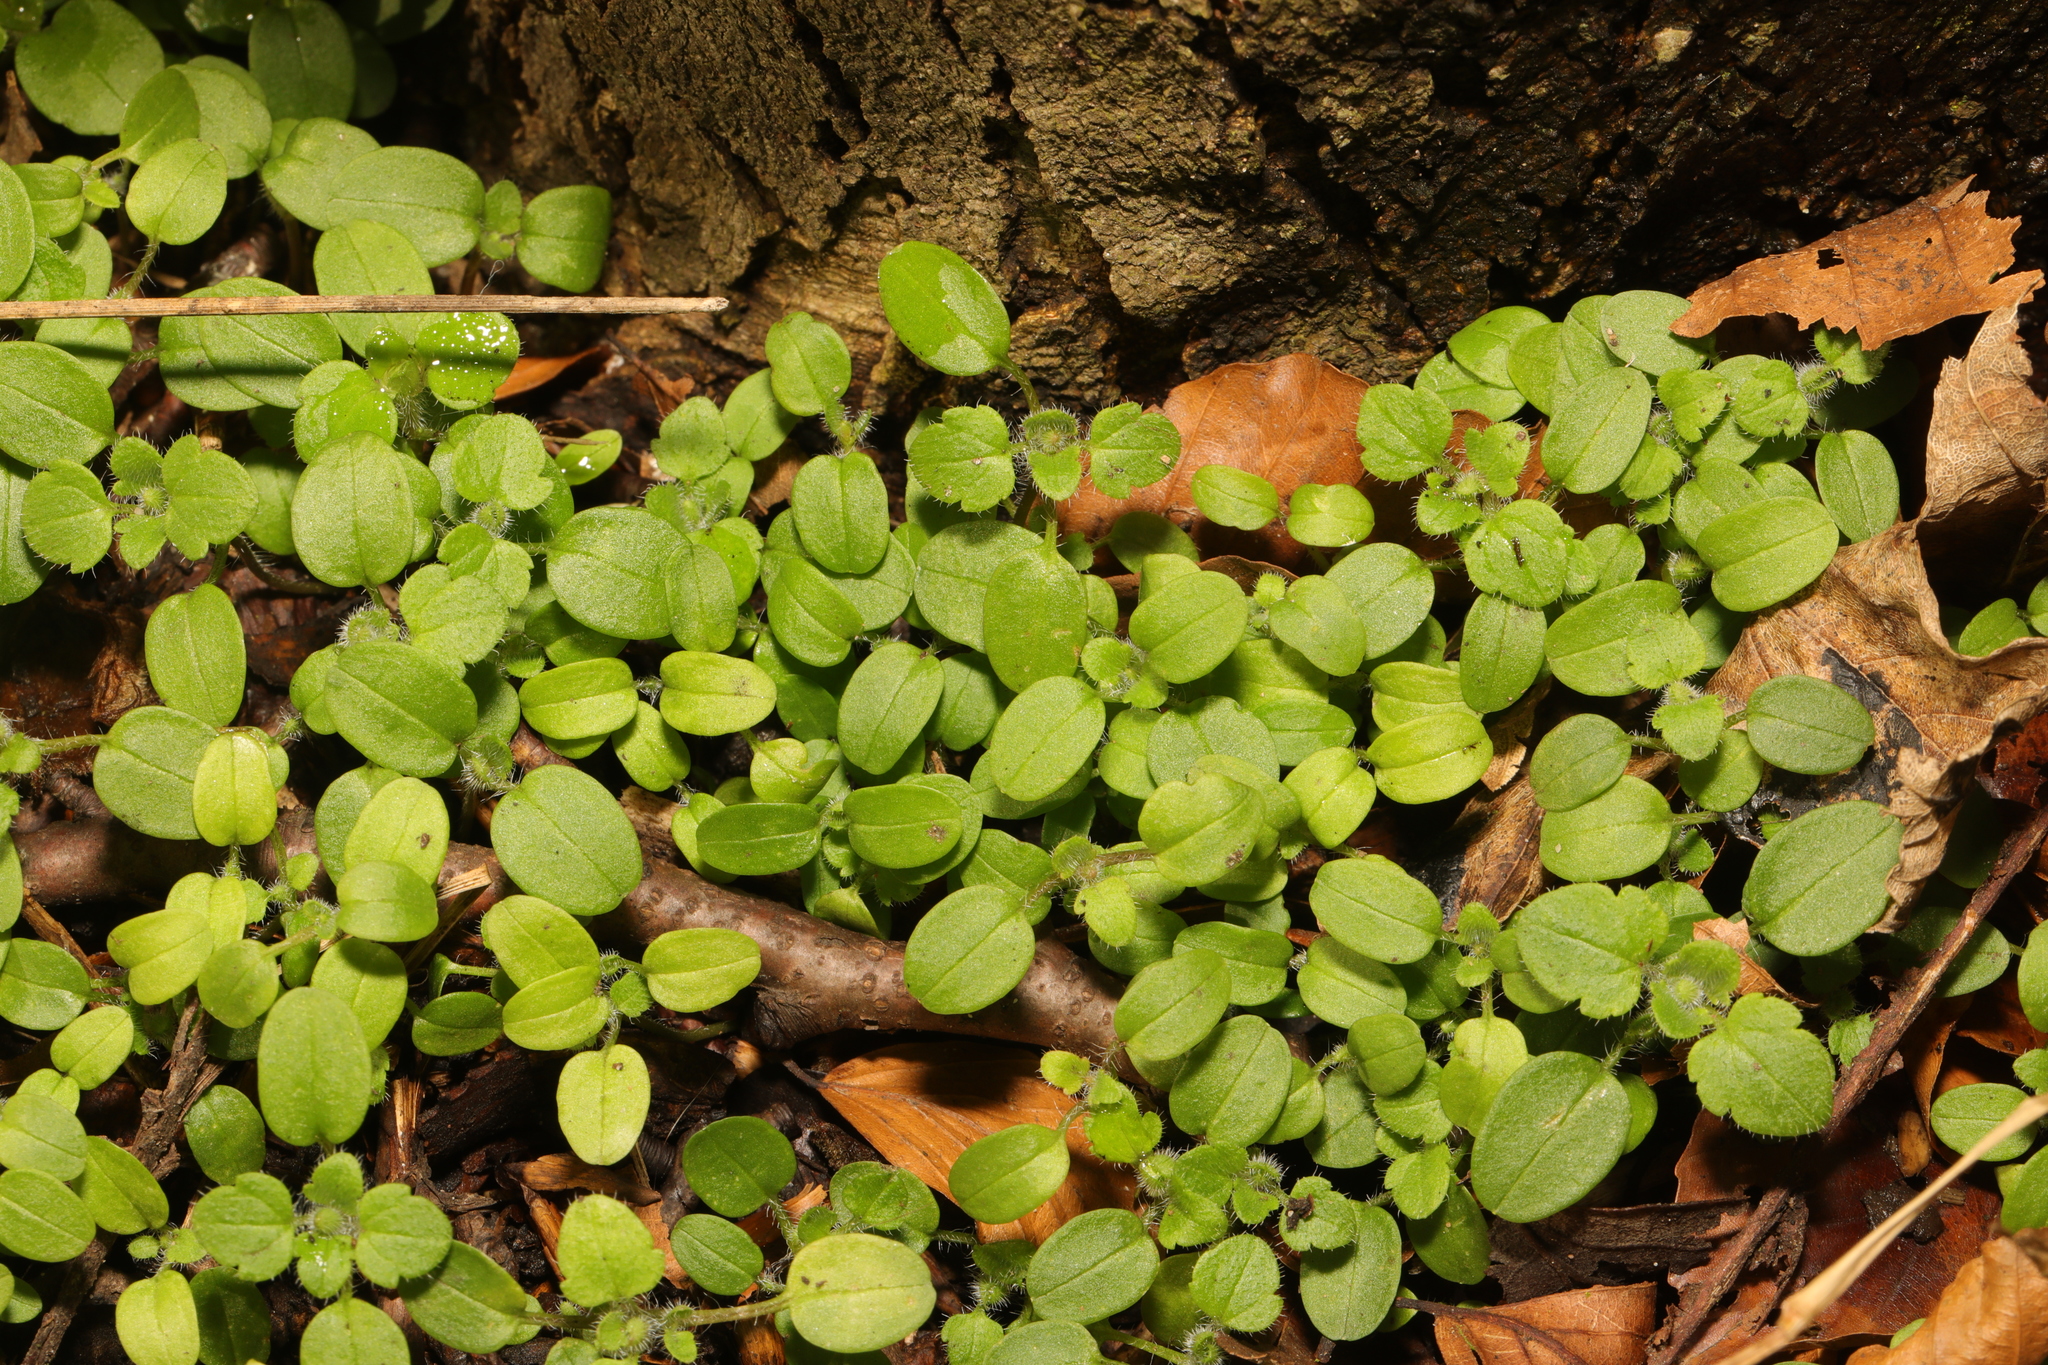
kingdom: Plantae
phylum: Tracheophyta
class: Magnoliopsida
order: Lamiales
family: Plantaginaceae
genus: Veronica
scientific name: Veronica hederifolia
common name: Ivy-leaved speedwell
